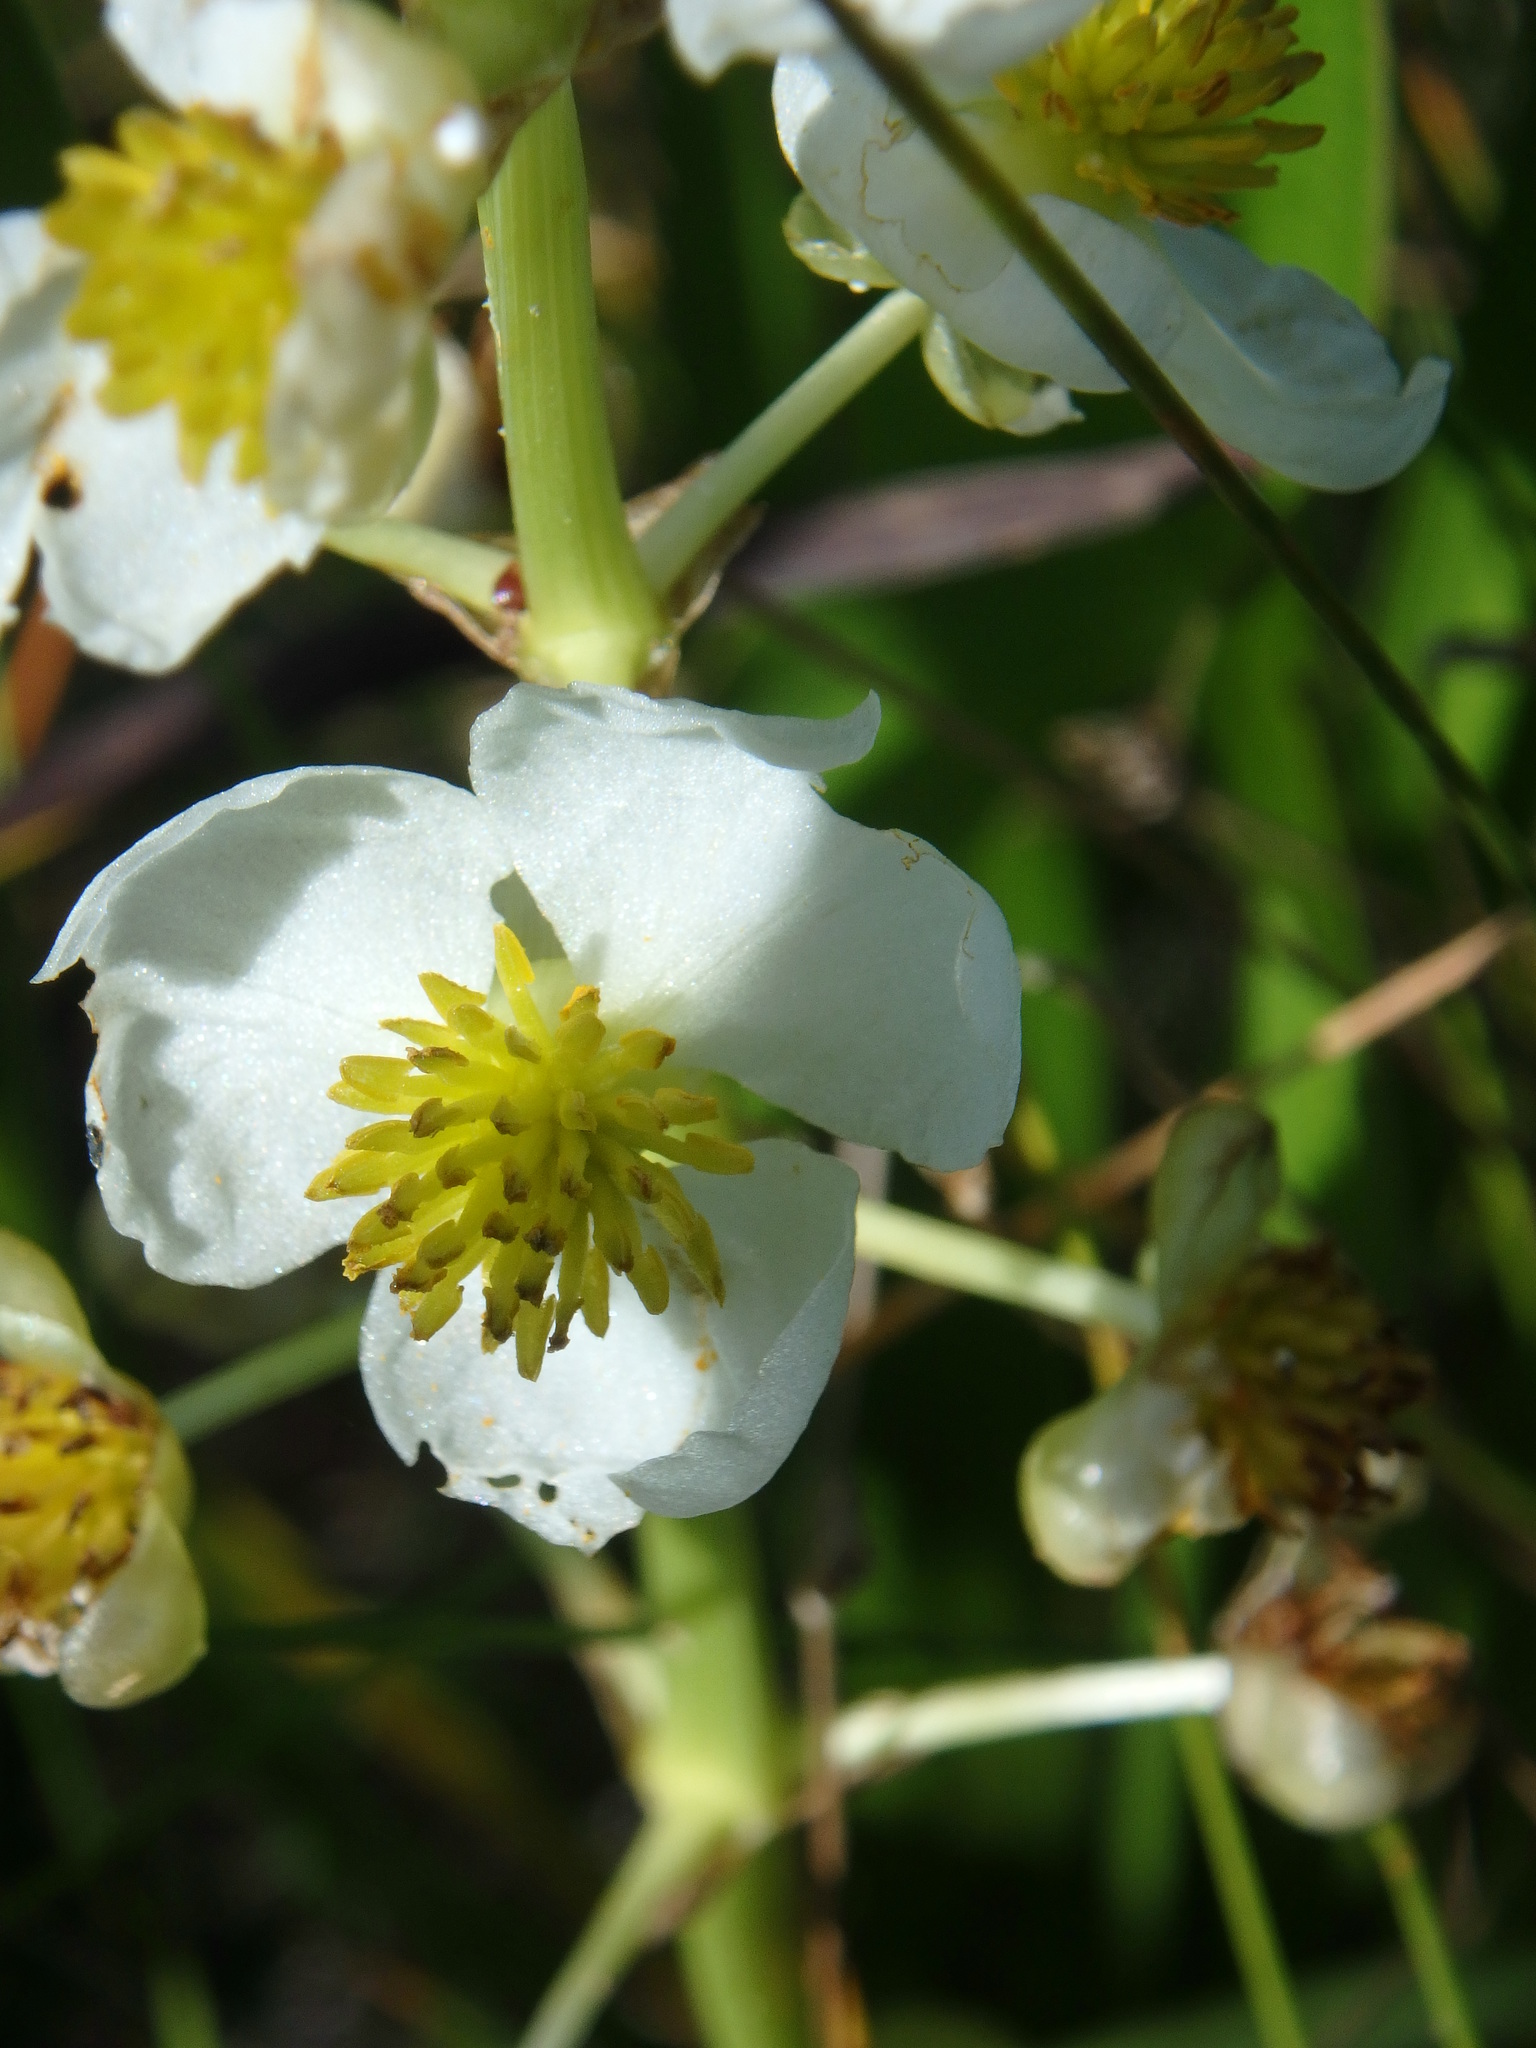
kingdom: Plantae
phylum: Tracheophyta
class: Liliopsida
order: Alismatales
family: Alismataceae
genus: Sagittaria
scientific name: Sagittaria latifolia
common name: Duck-potato
